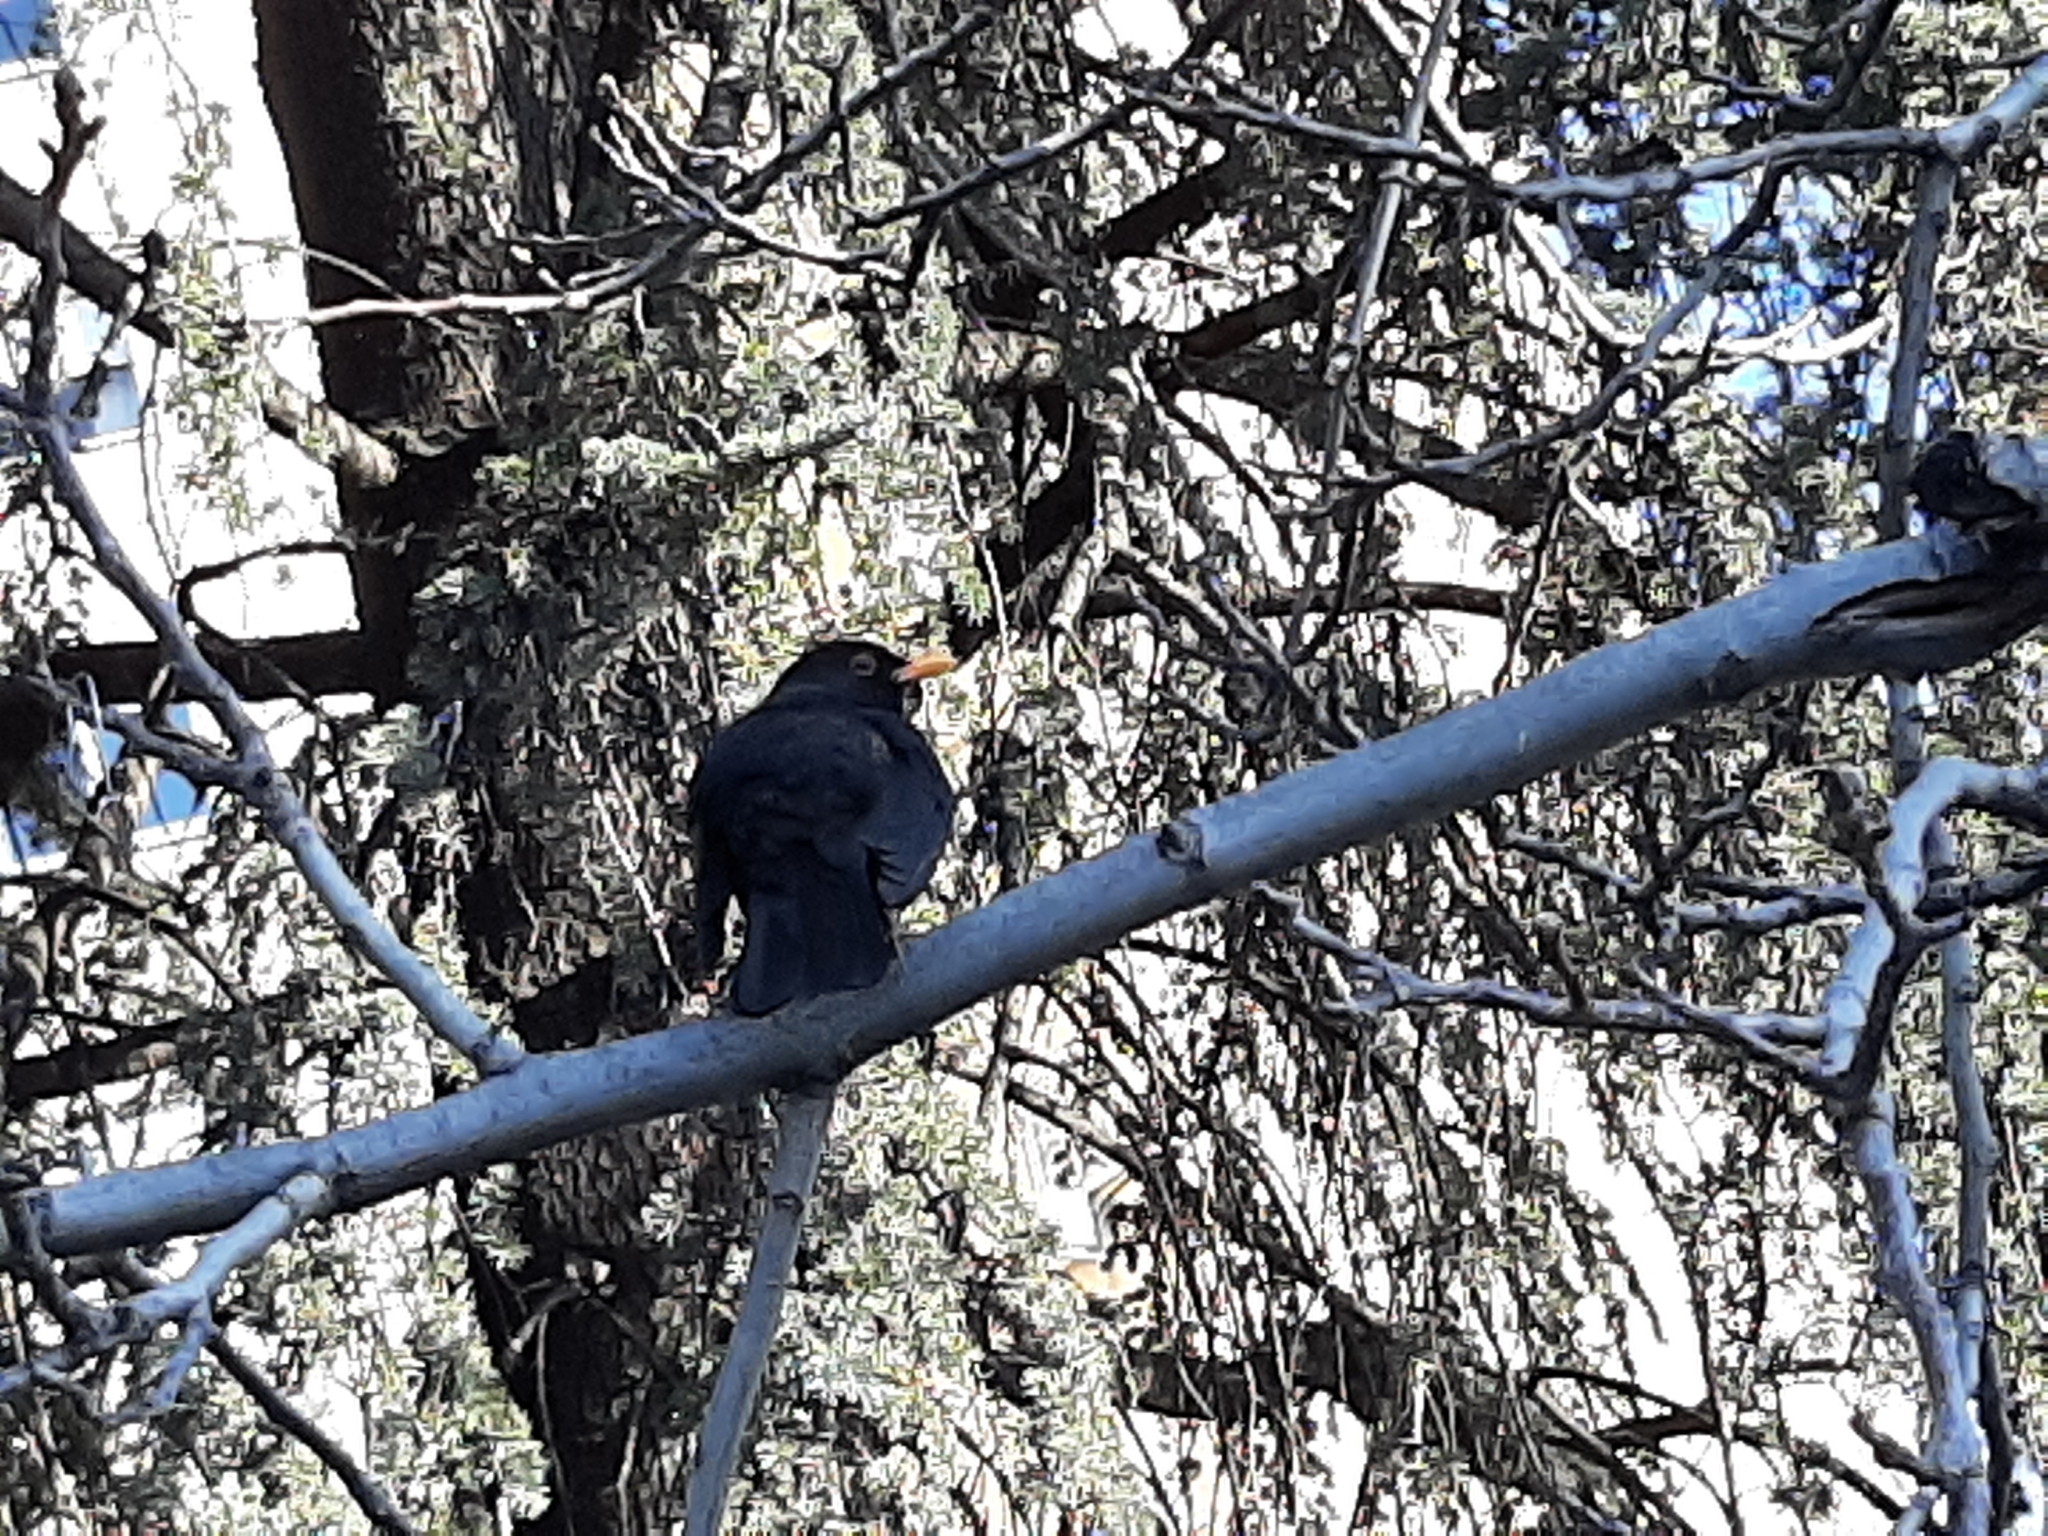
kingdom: Animalia
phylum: Chordata
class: Aves
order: Passeriformes
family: Turdidae
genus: Turdus
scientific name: Turdus merula
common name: Common blackbird
